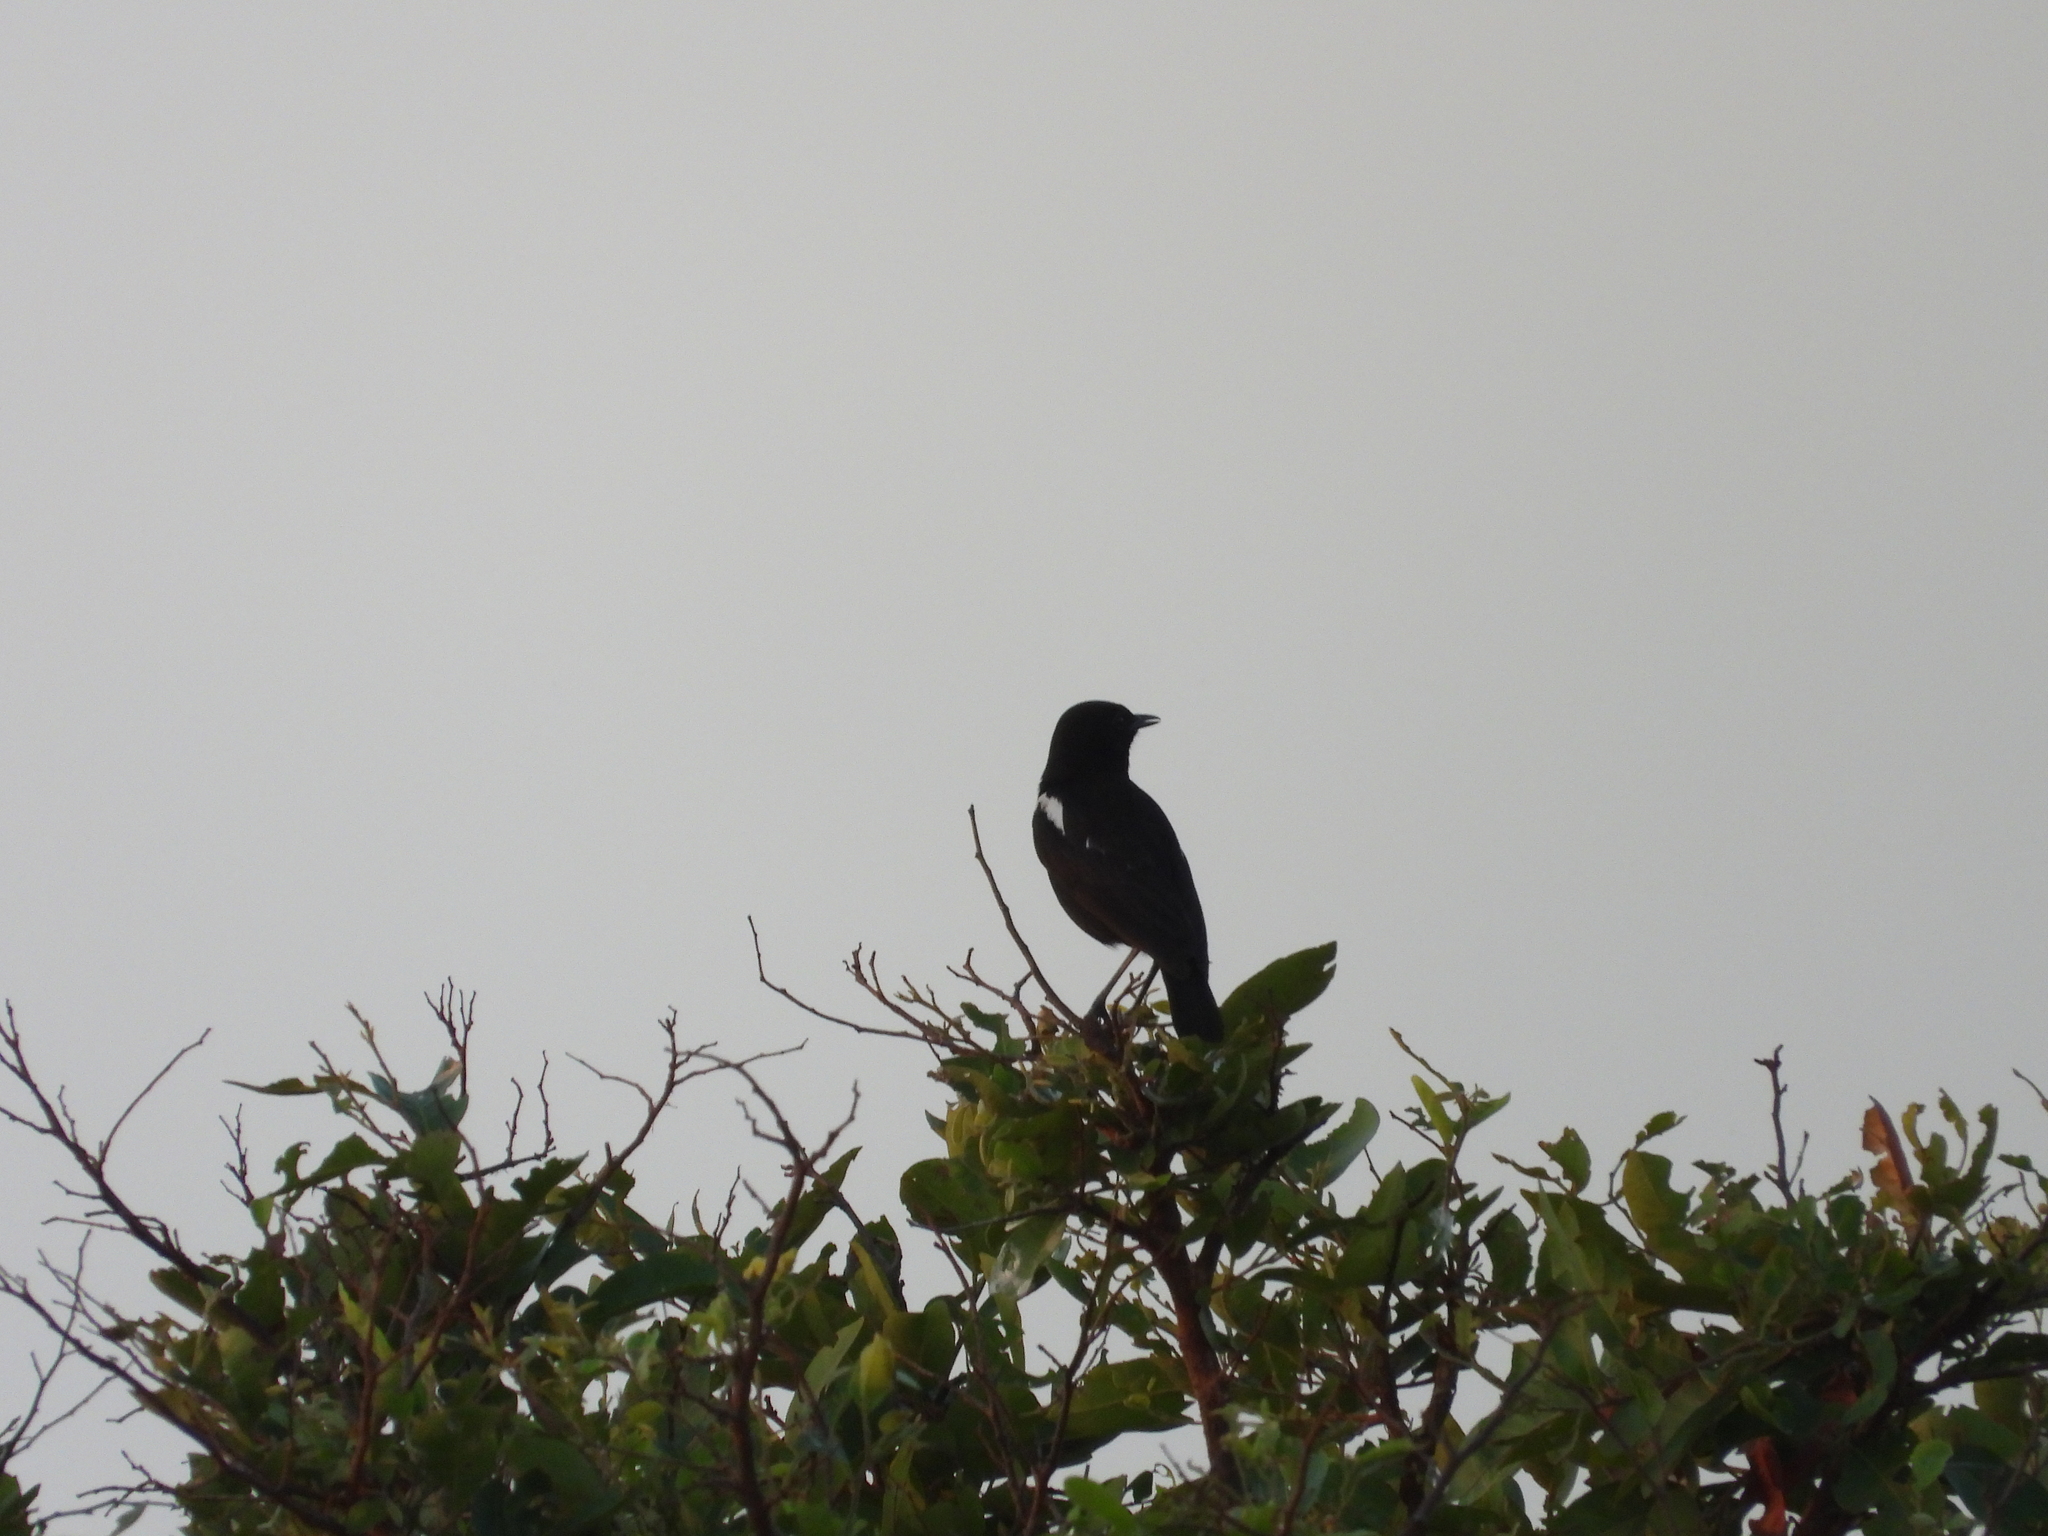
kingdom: Animalia
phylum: Chordata
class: Aves
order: Passeriformes
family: Muscicapidae
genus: Myrmecocichla
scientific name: Myrmecocichla nigra
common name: Sooty chat
